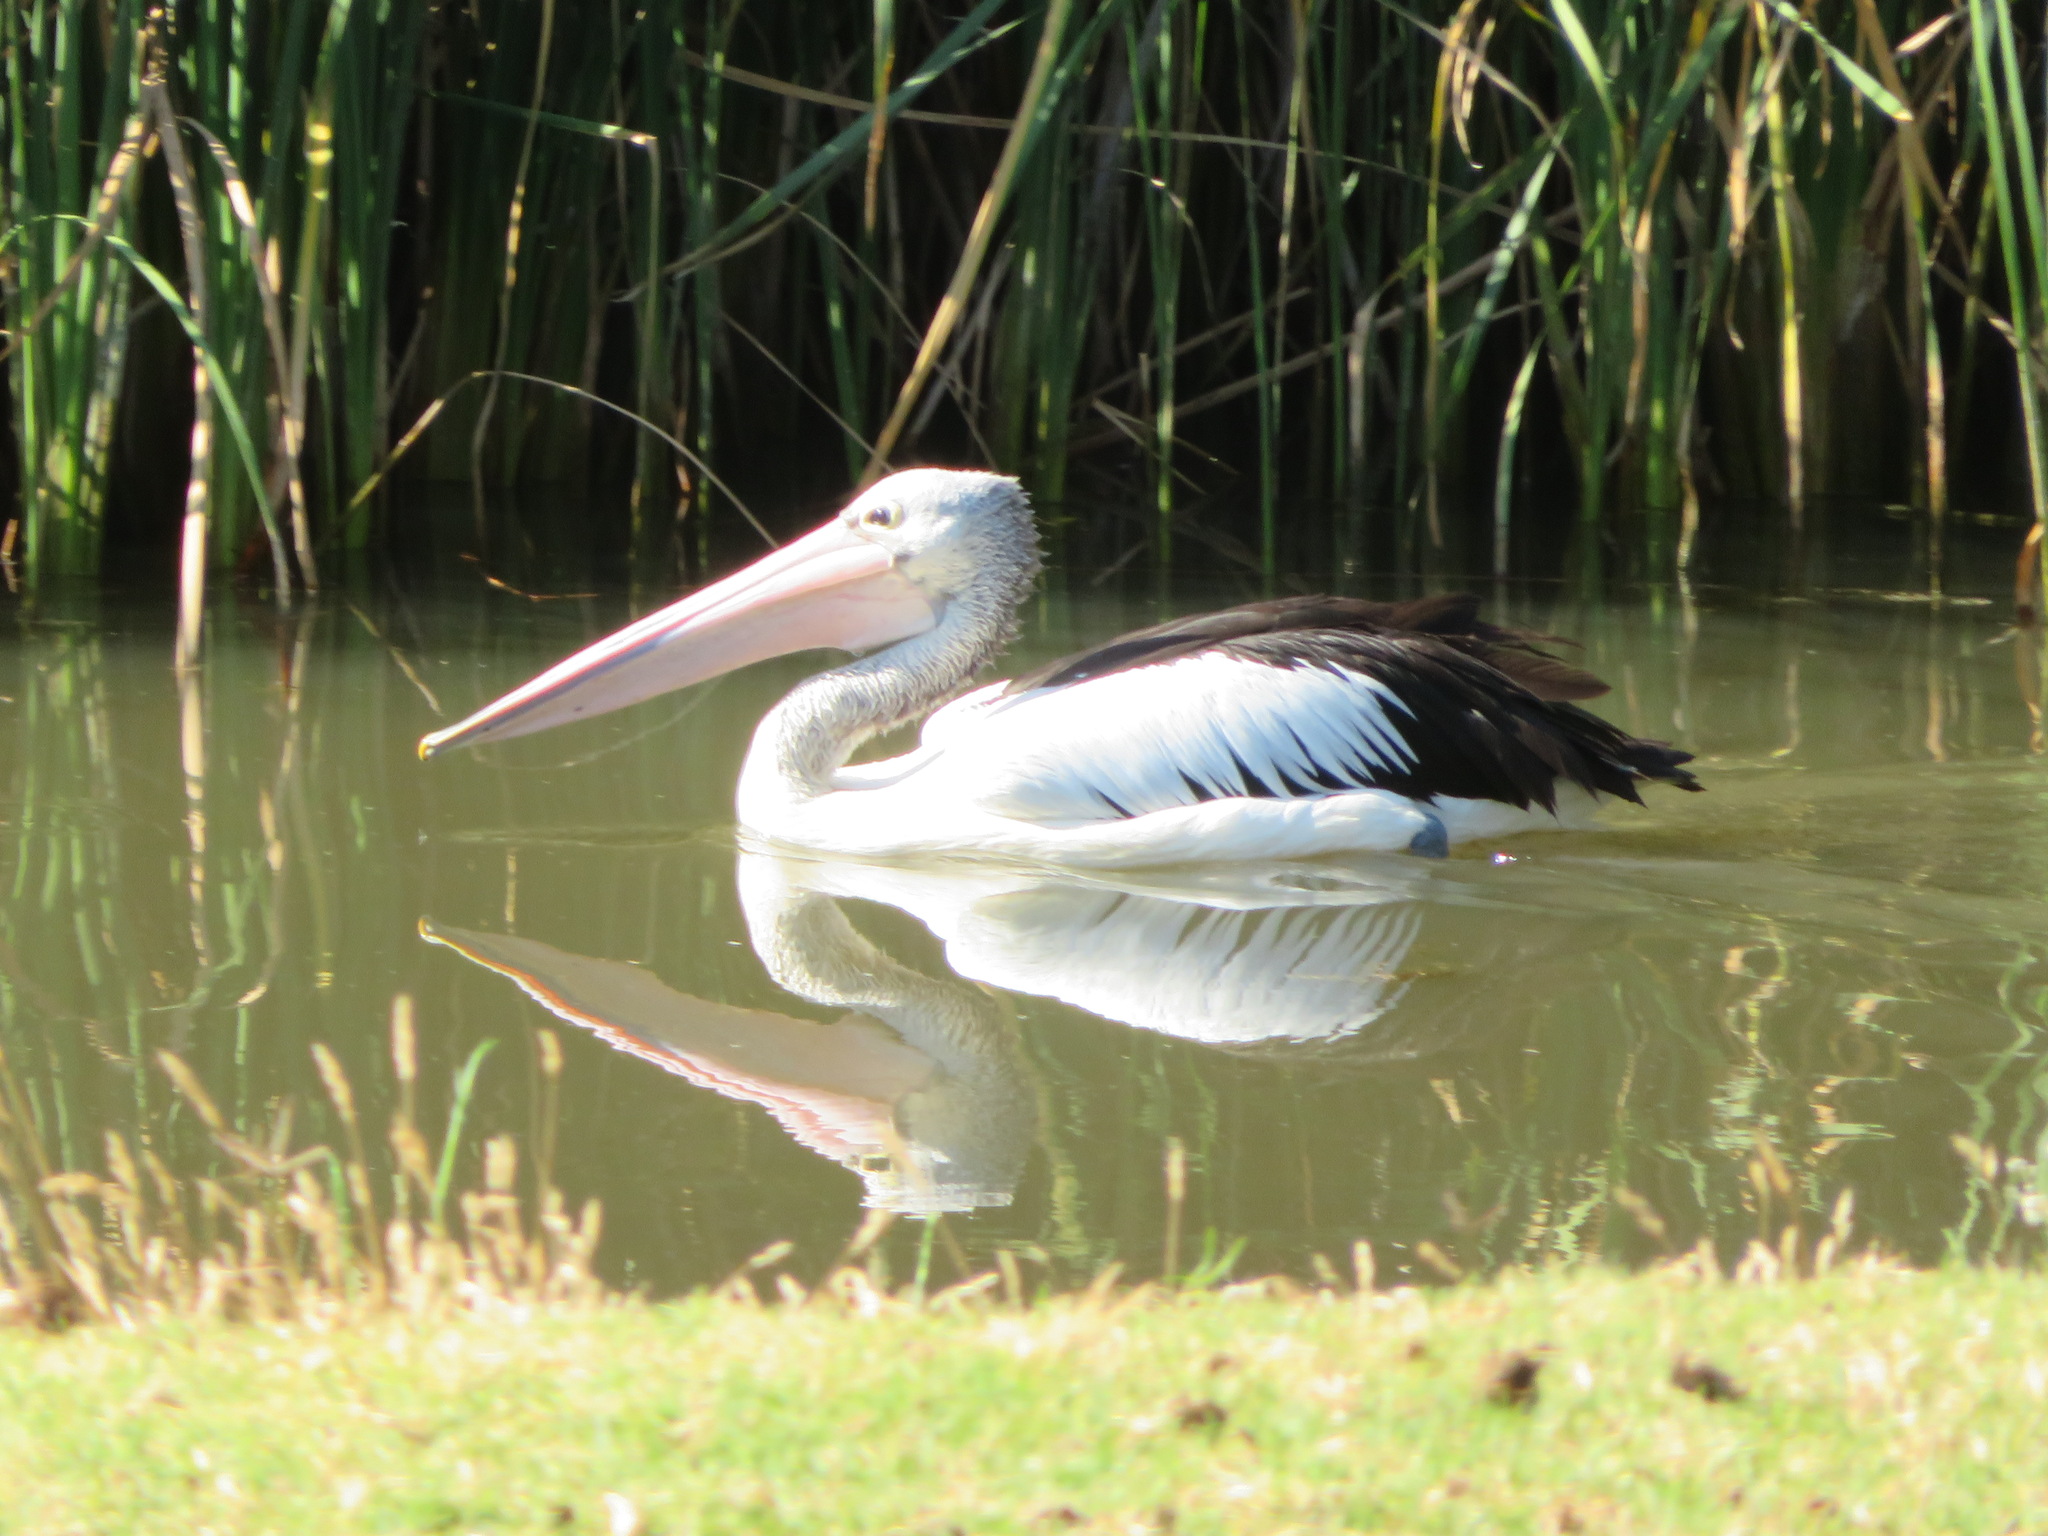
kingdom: Animalia
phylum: Chordata
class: Aves
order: Pelecaniformes
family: Pelecanidae
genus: Pelecanus
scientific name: Pelecanus conspicillatus
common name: Australian pelican
